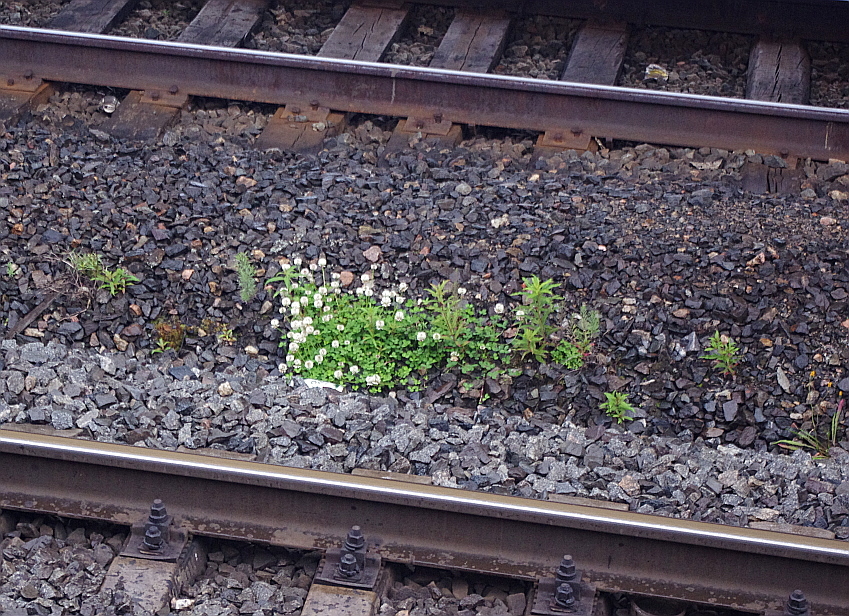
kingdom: Plantae
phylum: Tracheophyta
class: Magnoliopsida
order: Fabales
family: Fabaceae
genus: Trifolium
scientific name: Trifolium repens
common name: White clover
